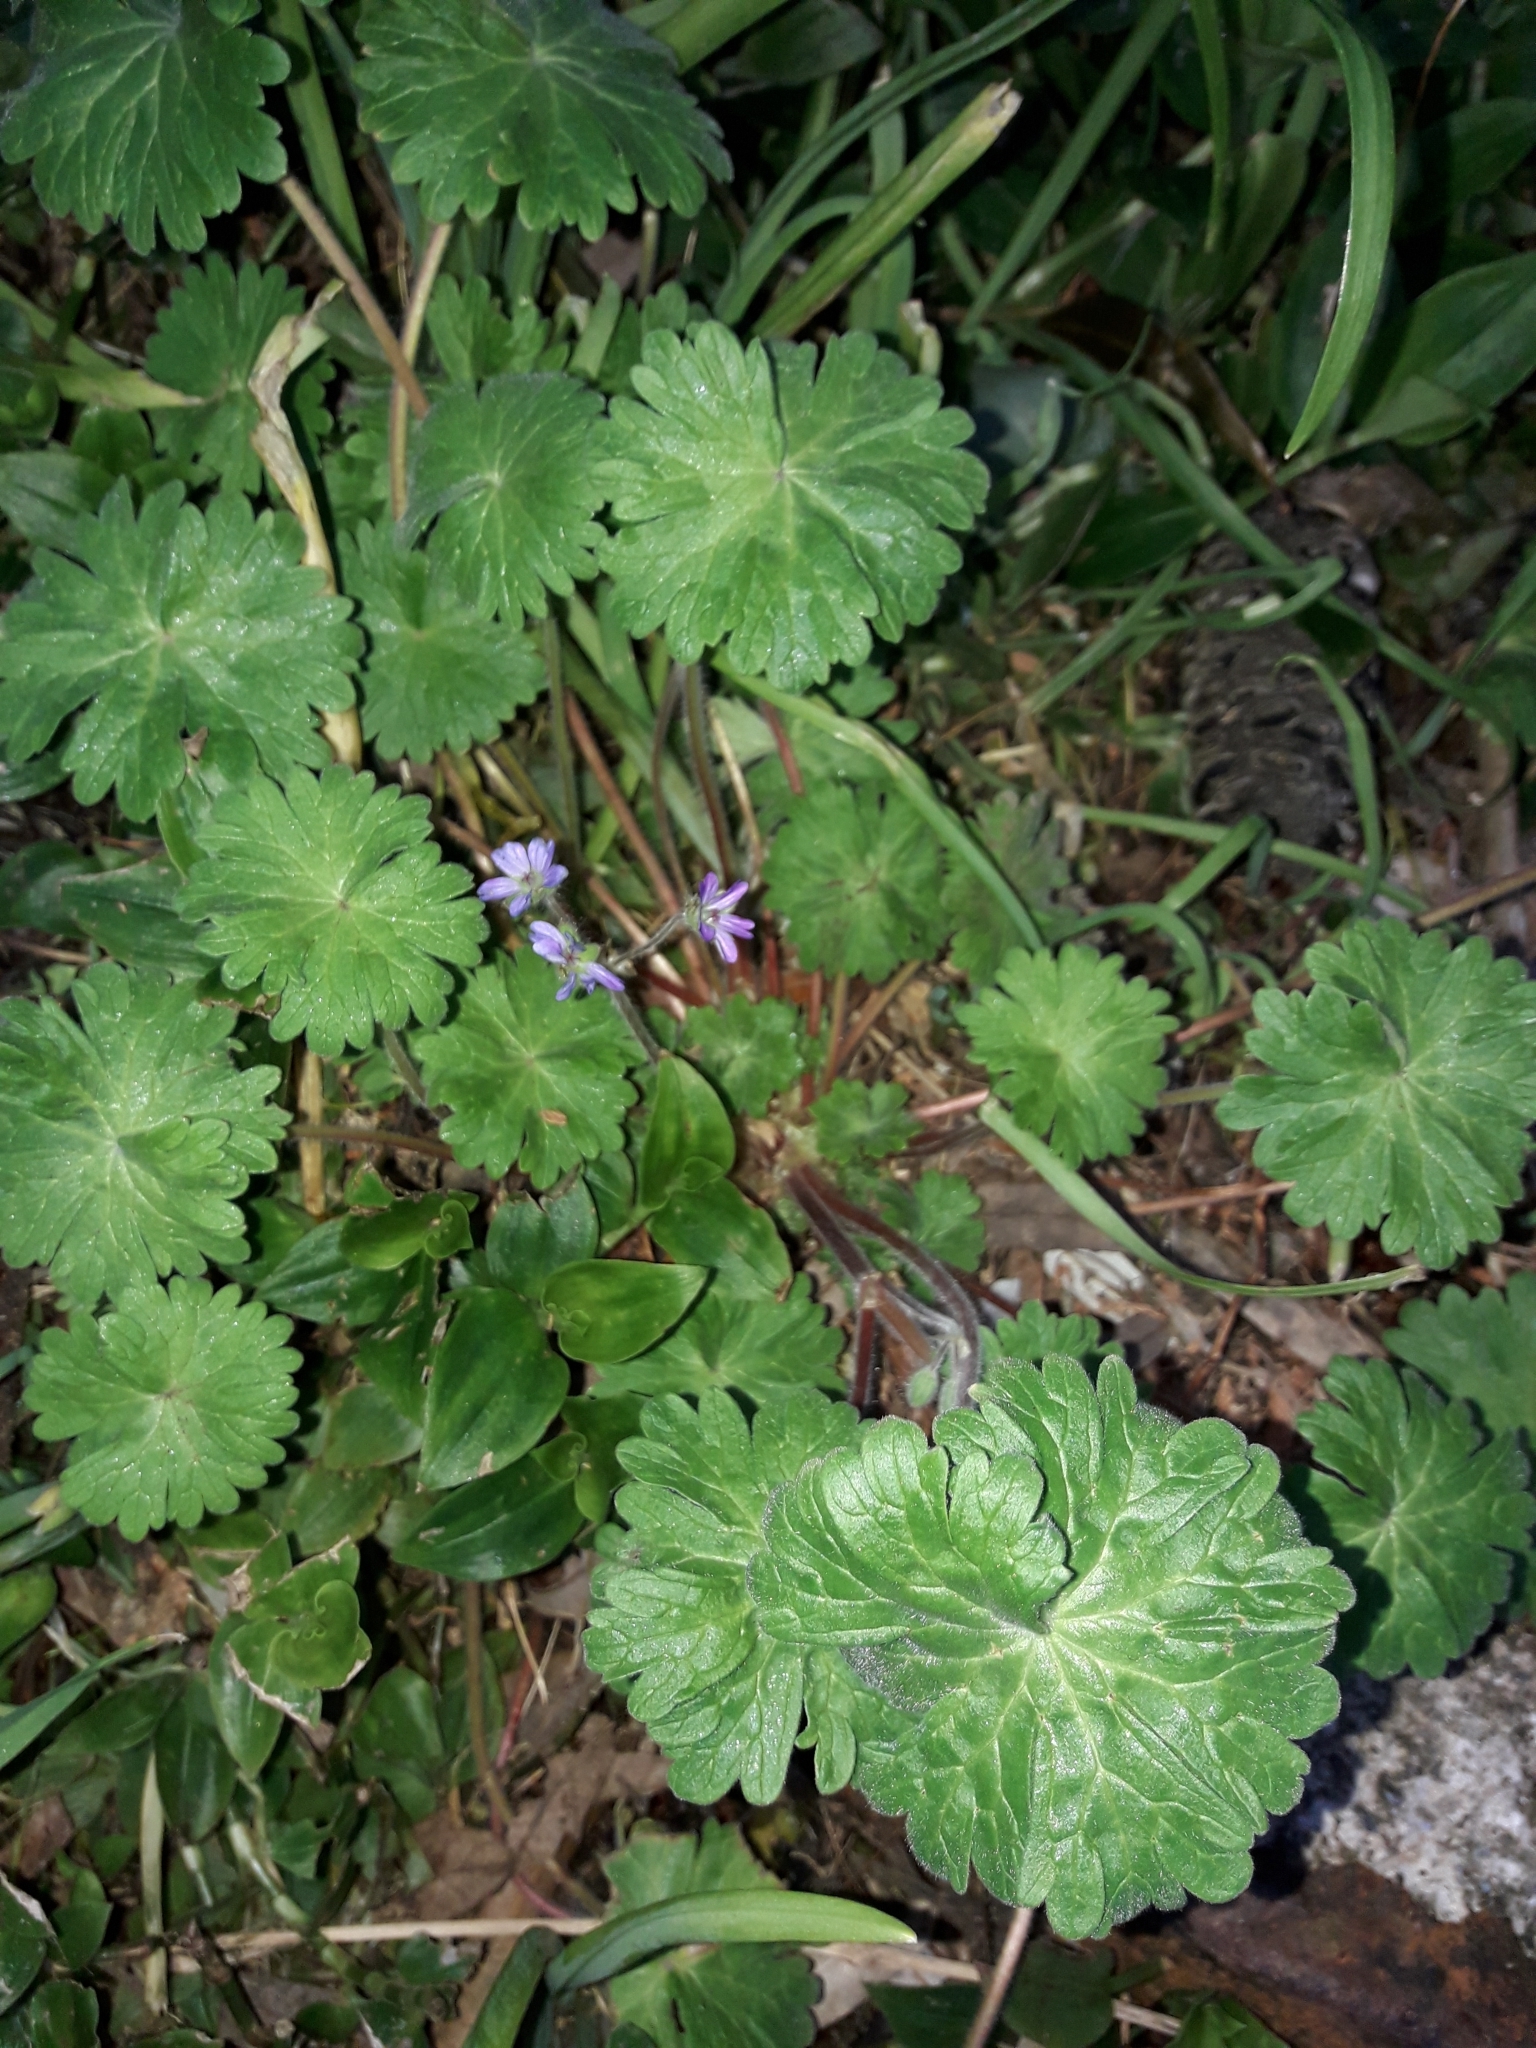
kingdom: Plantae
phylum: Tracheophyta
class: Magnoliopsida
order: Geraniales
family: Geraniaceae
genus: Geranium
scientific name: Geranium molle
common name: Dove's-foot crane's-bill
